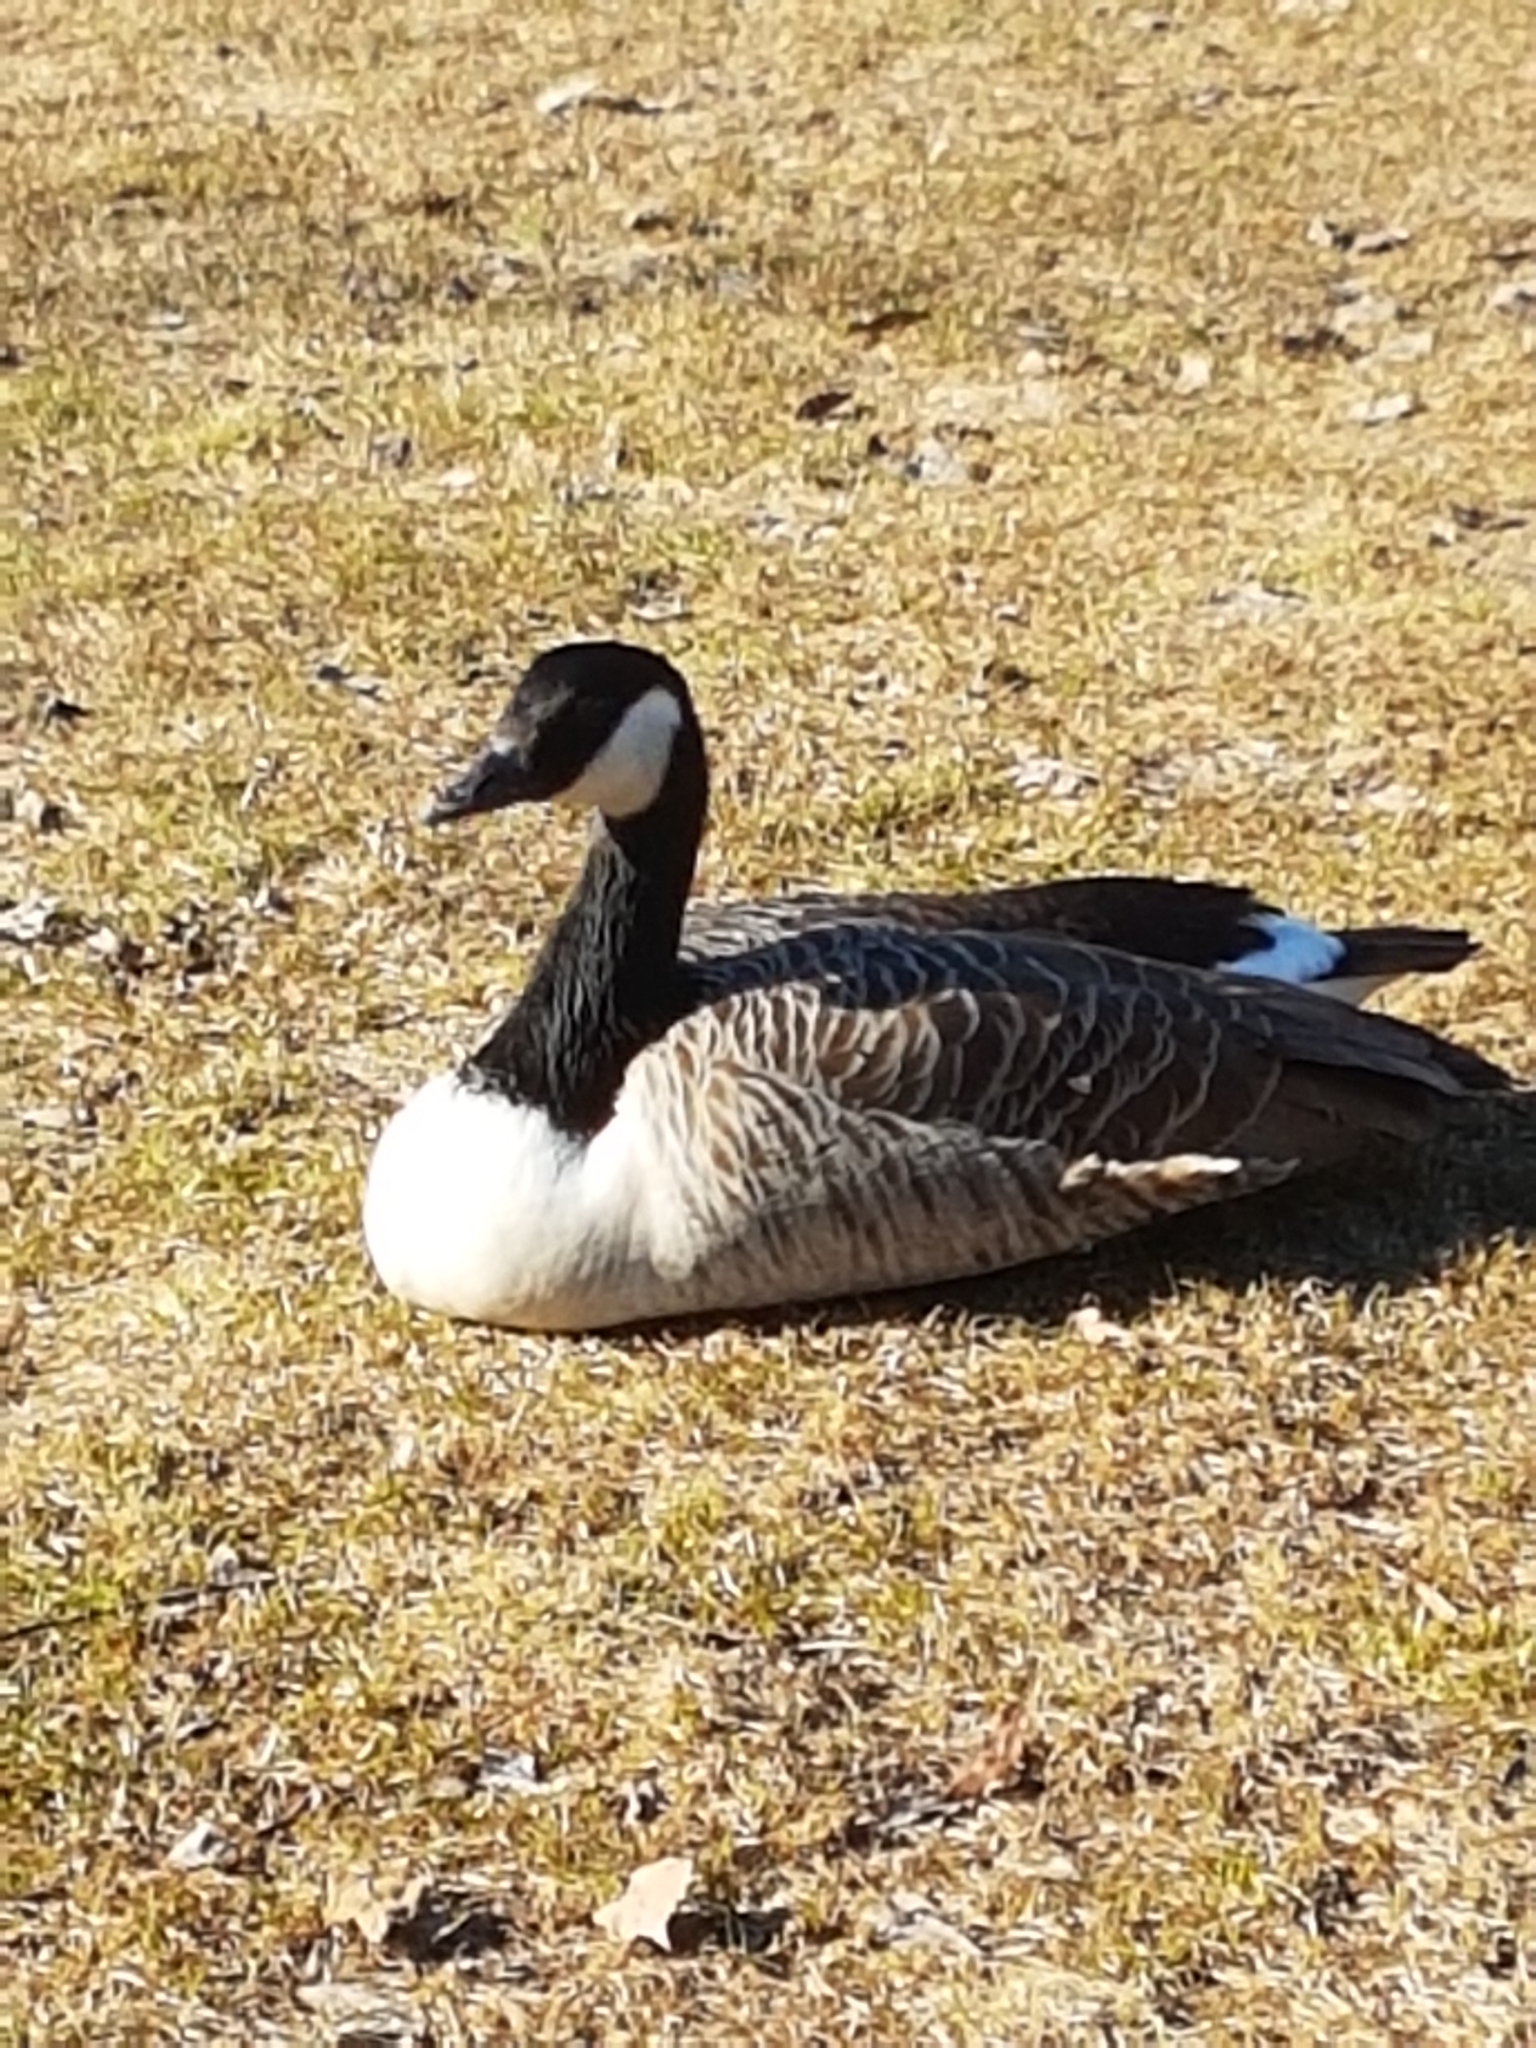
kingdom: Animalia
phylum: Chordata
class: Aves
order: Anseriformes
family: Anatidae
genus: Branta
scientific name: Branta canadensis
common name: Canada goose
